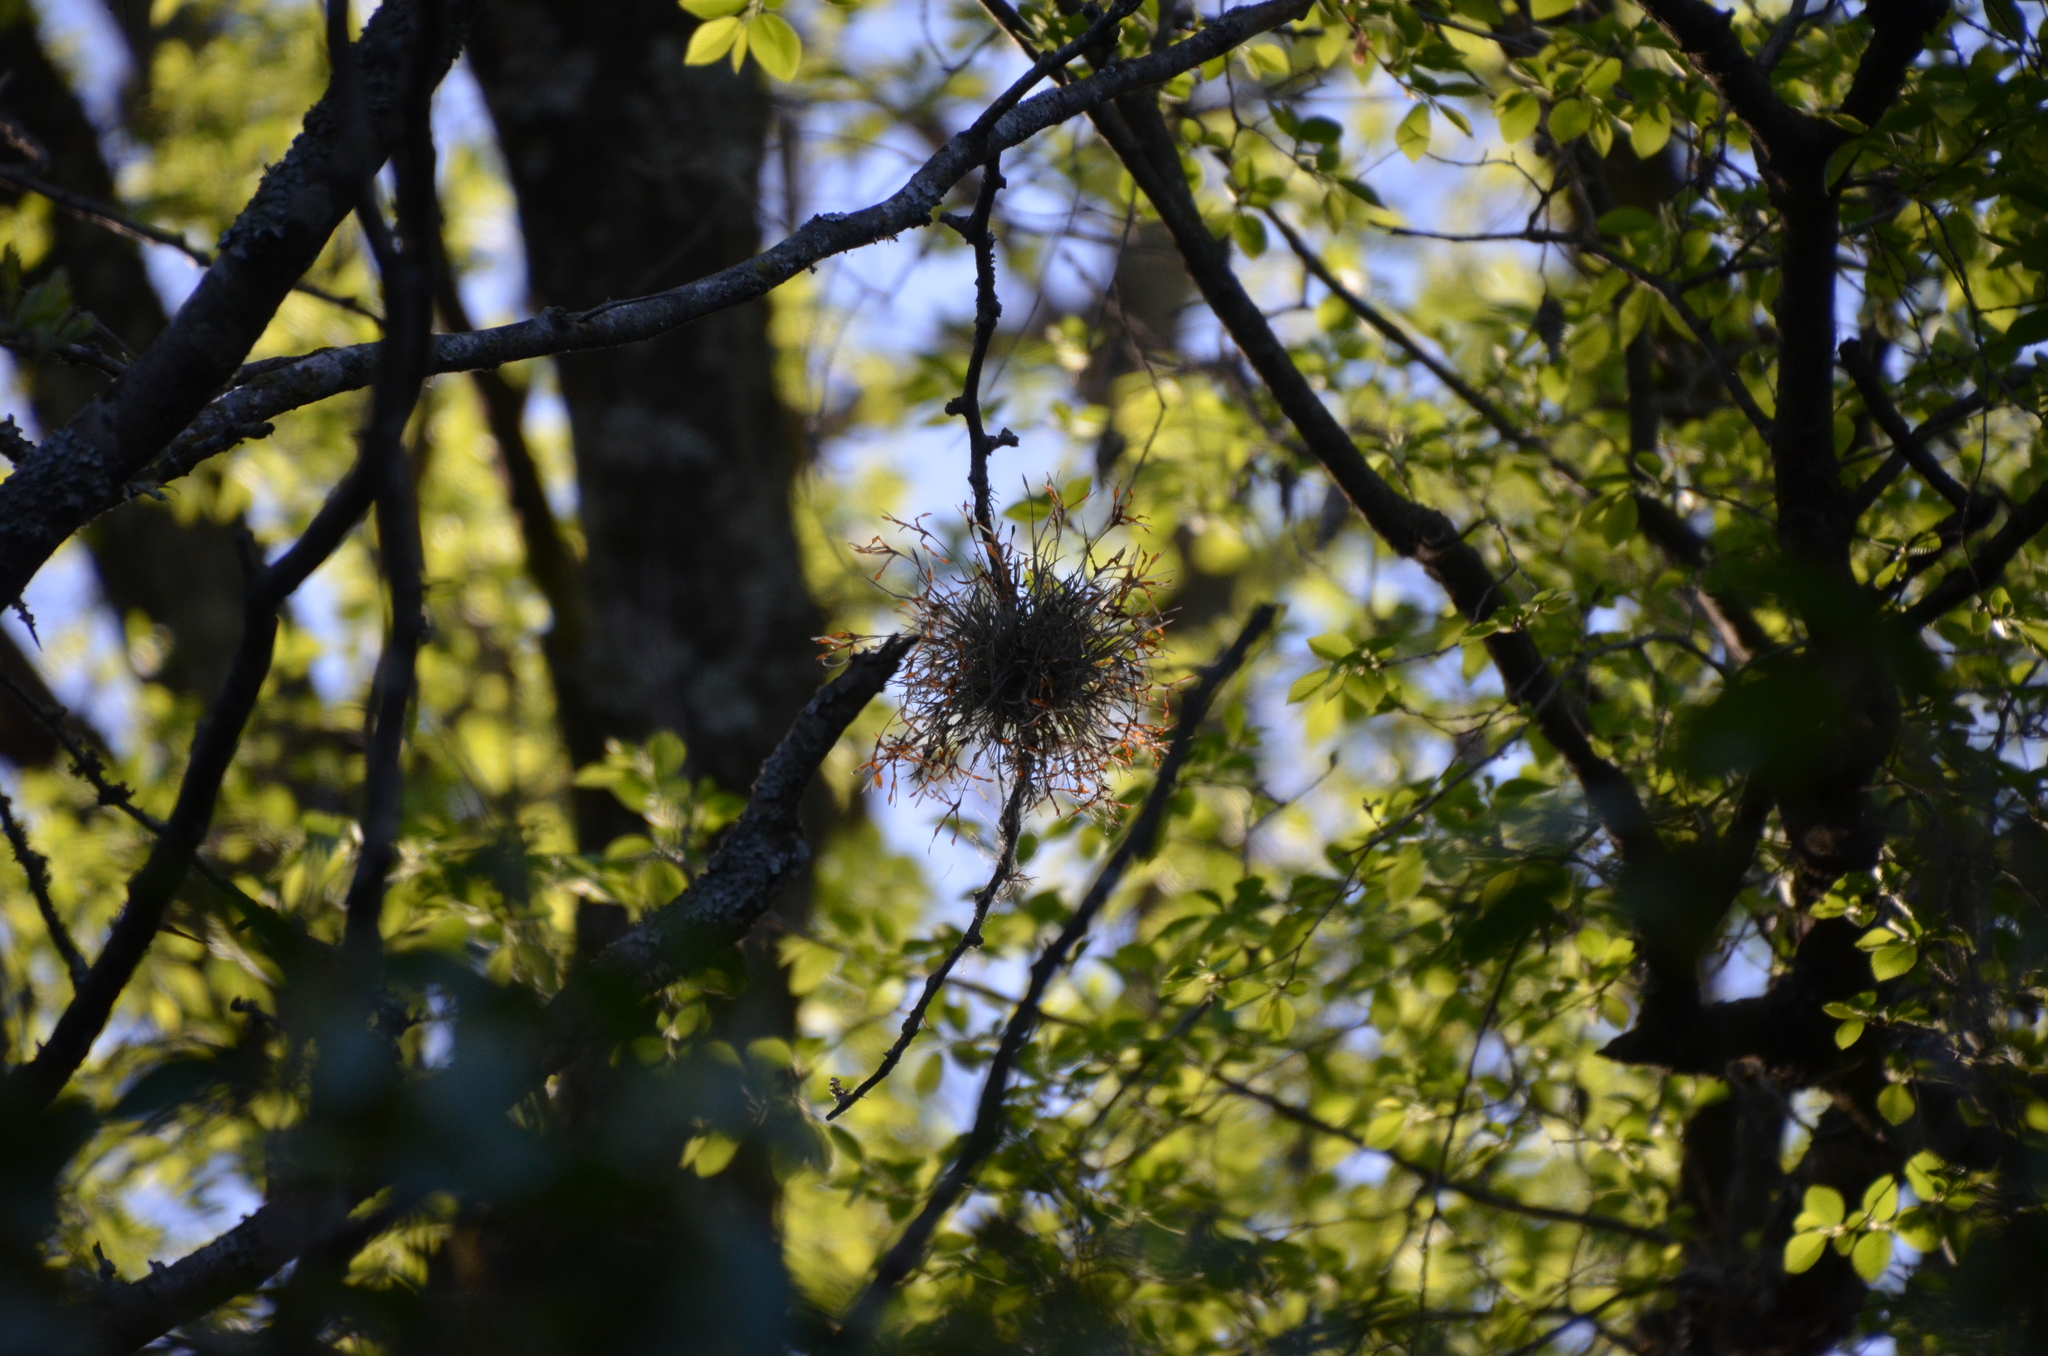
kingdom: Plantae
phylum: Tracheophyta
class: Liliopsida
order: Poales
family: Bromeliaceae
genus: Tillandsia
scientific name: Tillandsia recurvata
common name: Small ballmoss
